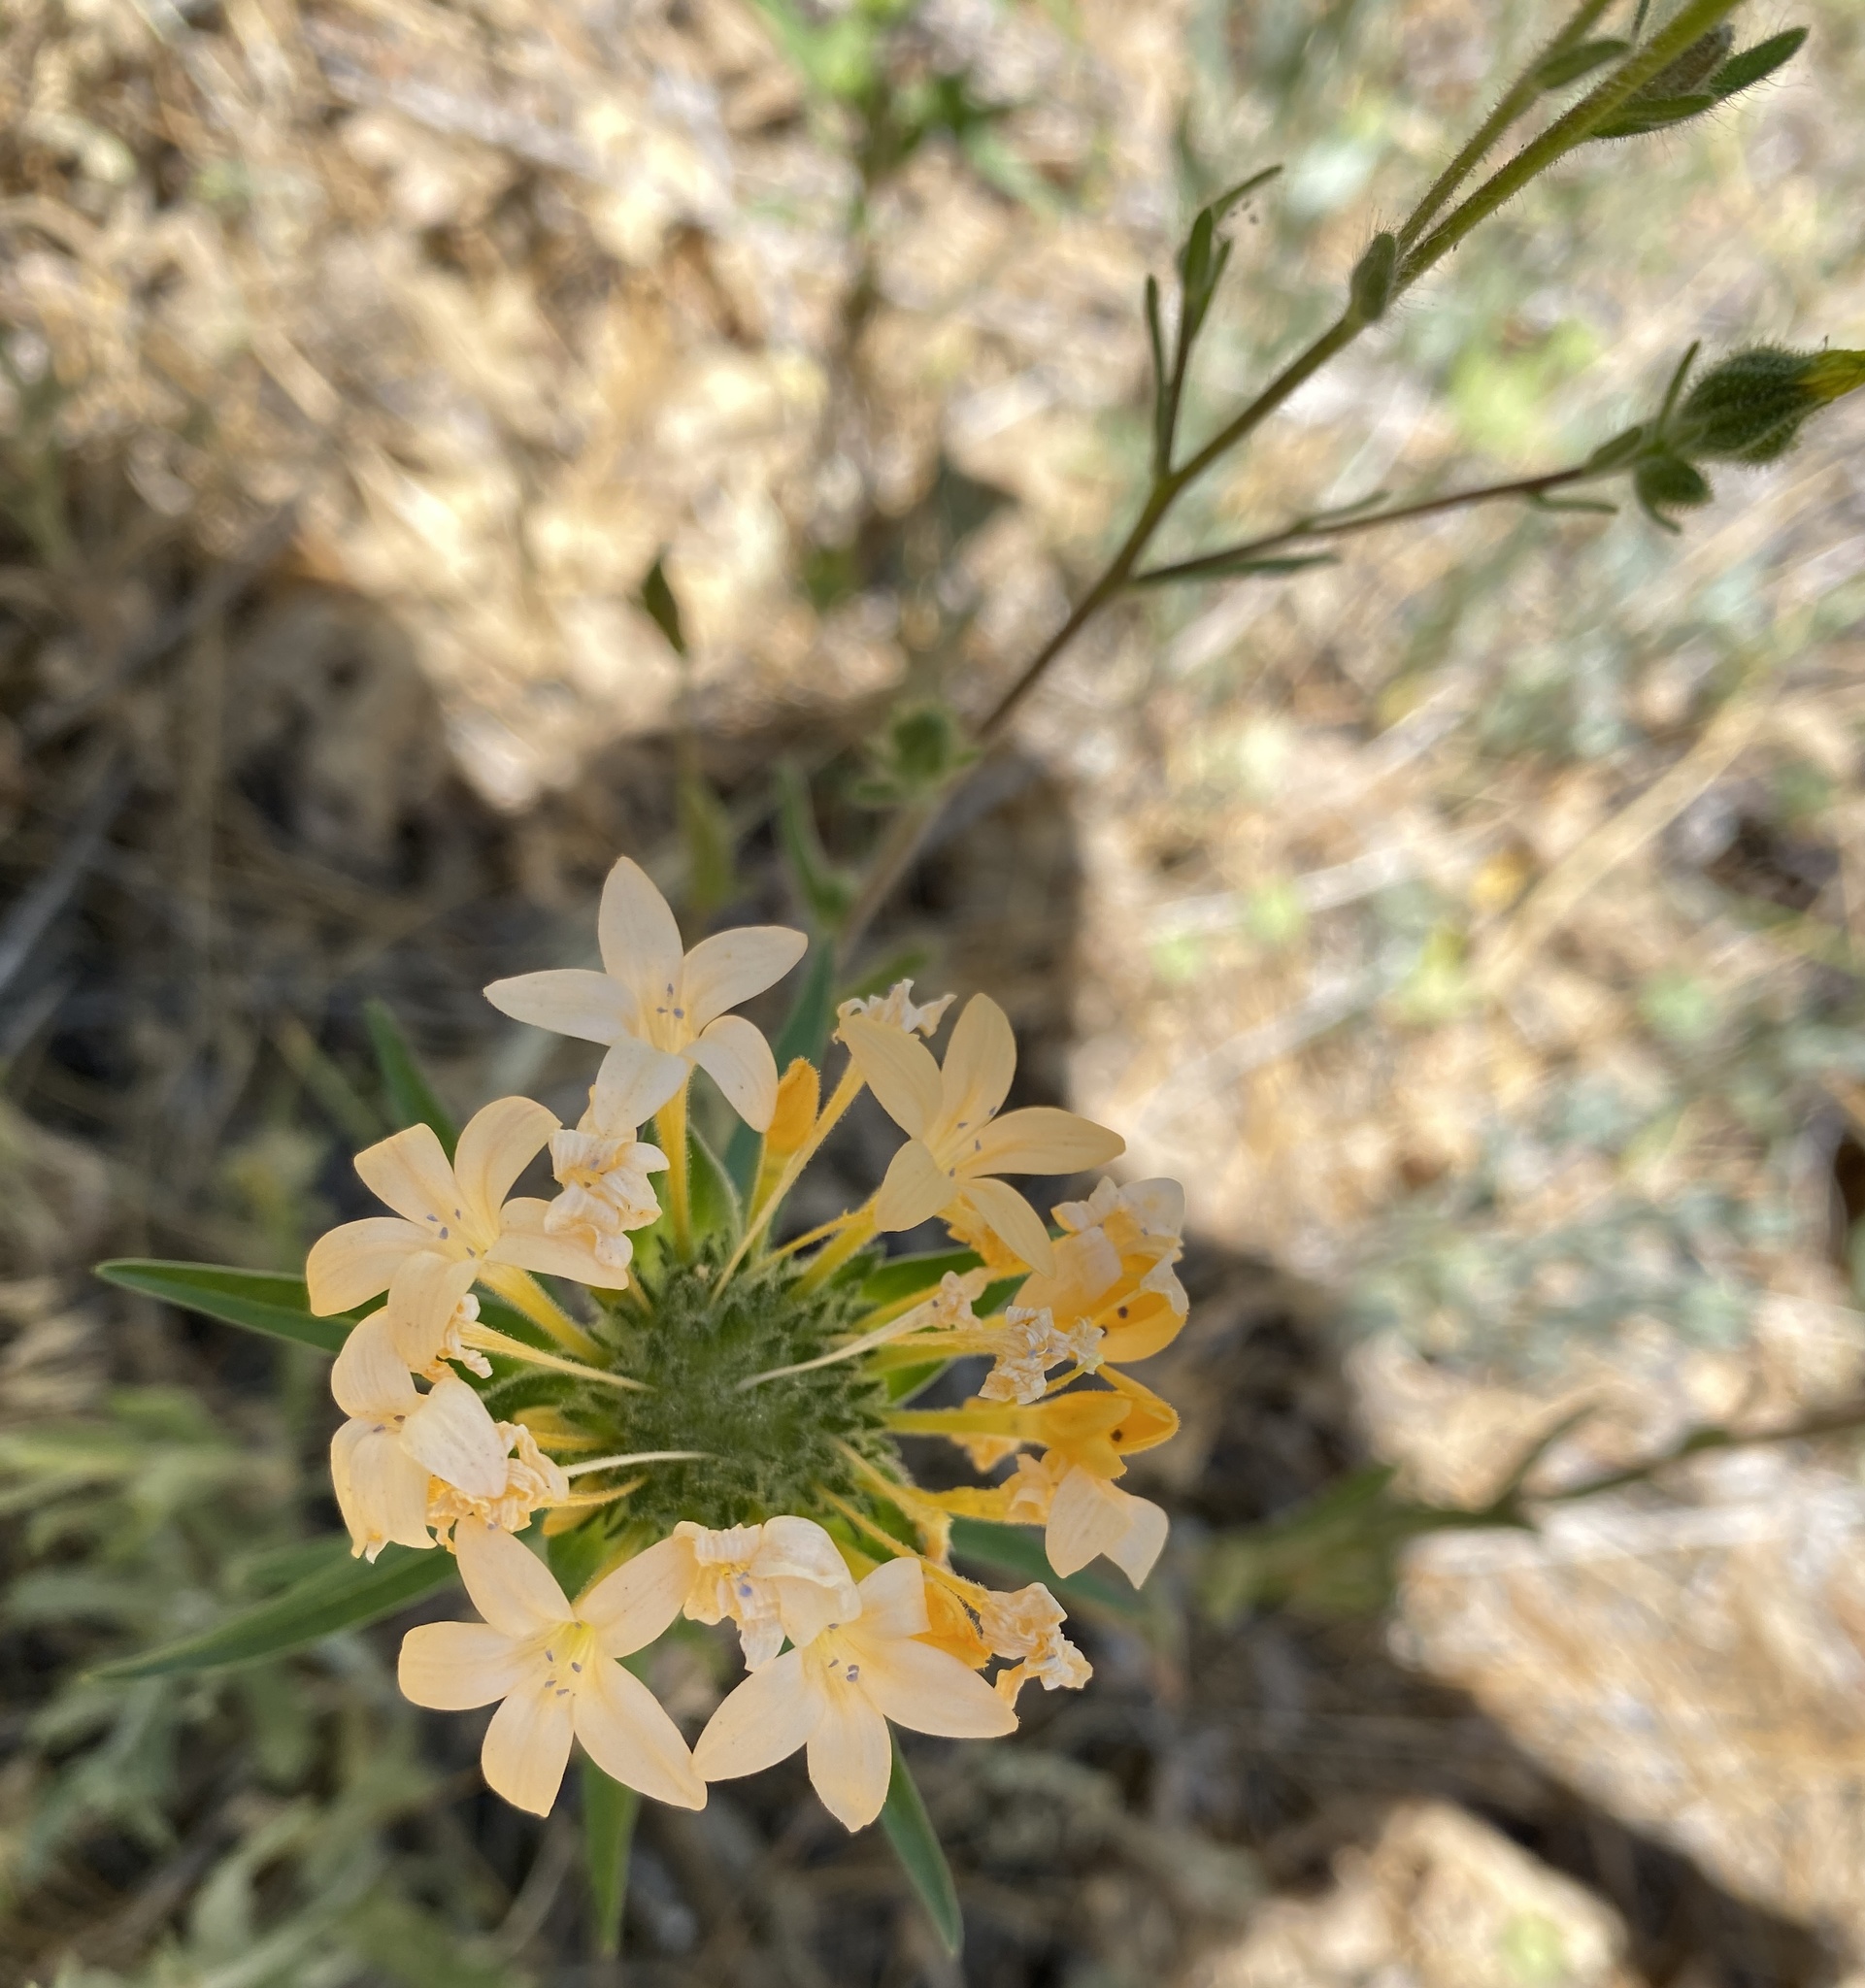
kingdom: Plantae
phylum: Tracheophyta
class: Magnoliopsida
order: Ericales
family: Polemoniaceae
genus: Collomia
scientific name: Collomia grandiflora
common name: California strawflower
